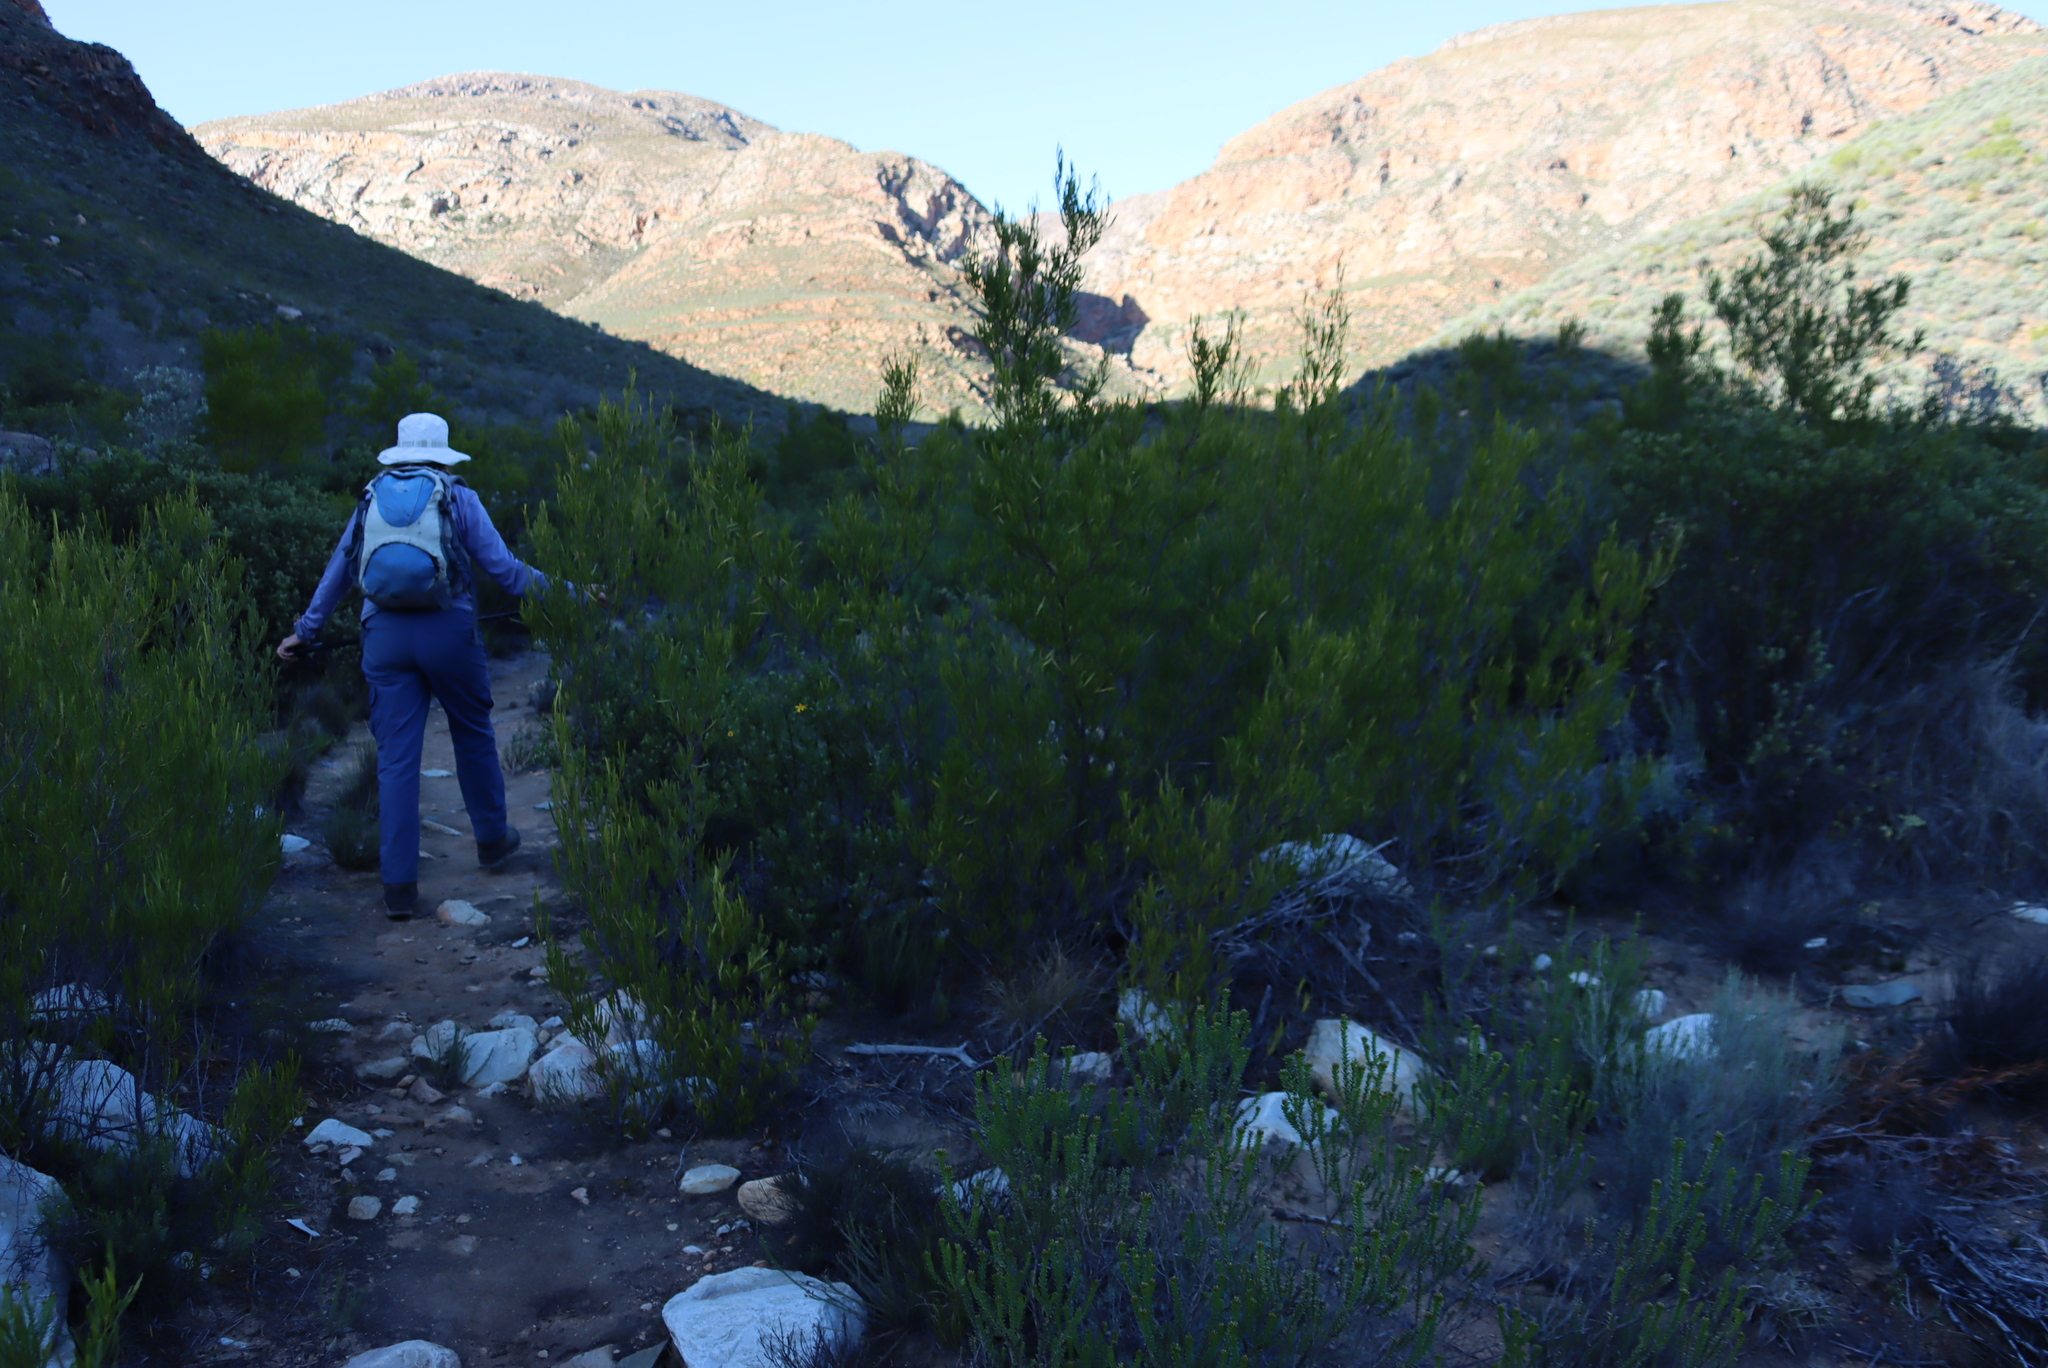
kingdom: Plantae
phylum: Tracheophyta
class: Magnoliopsida
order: Sapindales
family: Sapindaceae
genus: Dodonaea
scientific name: Dodonaea viscosa
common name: Hopbush
